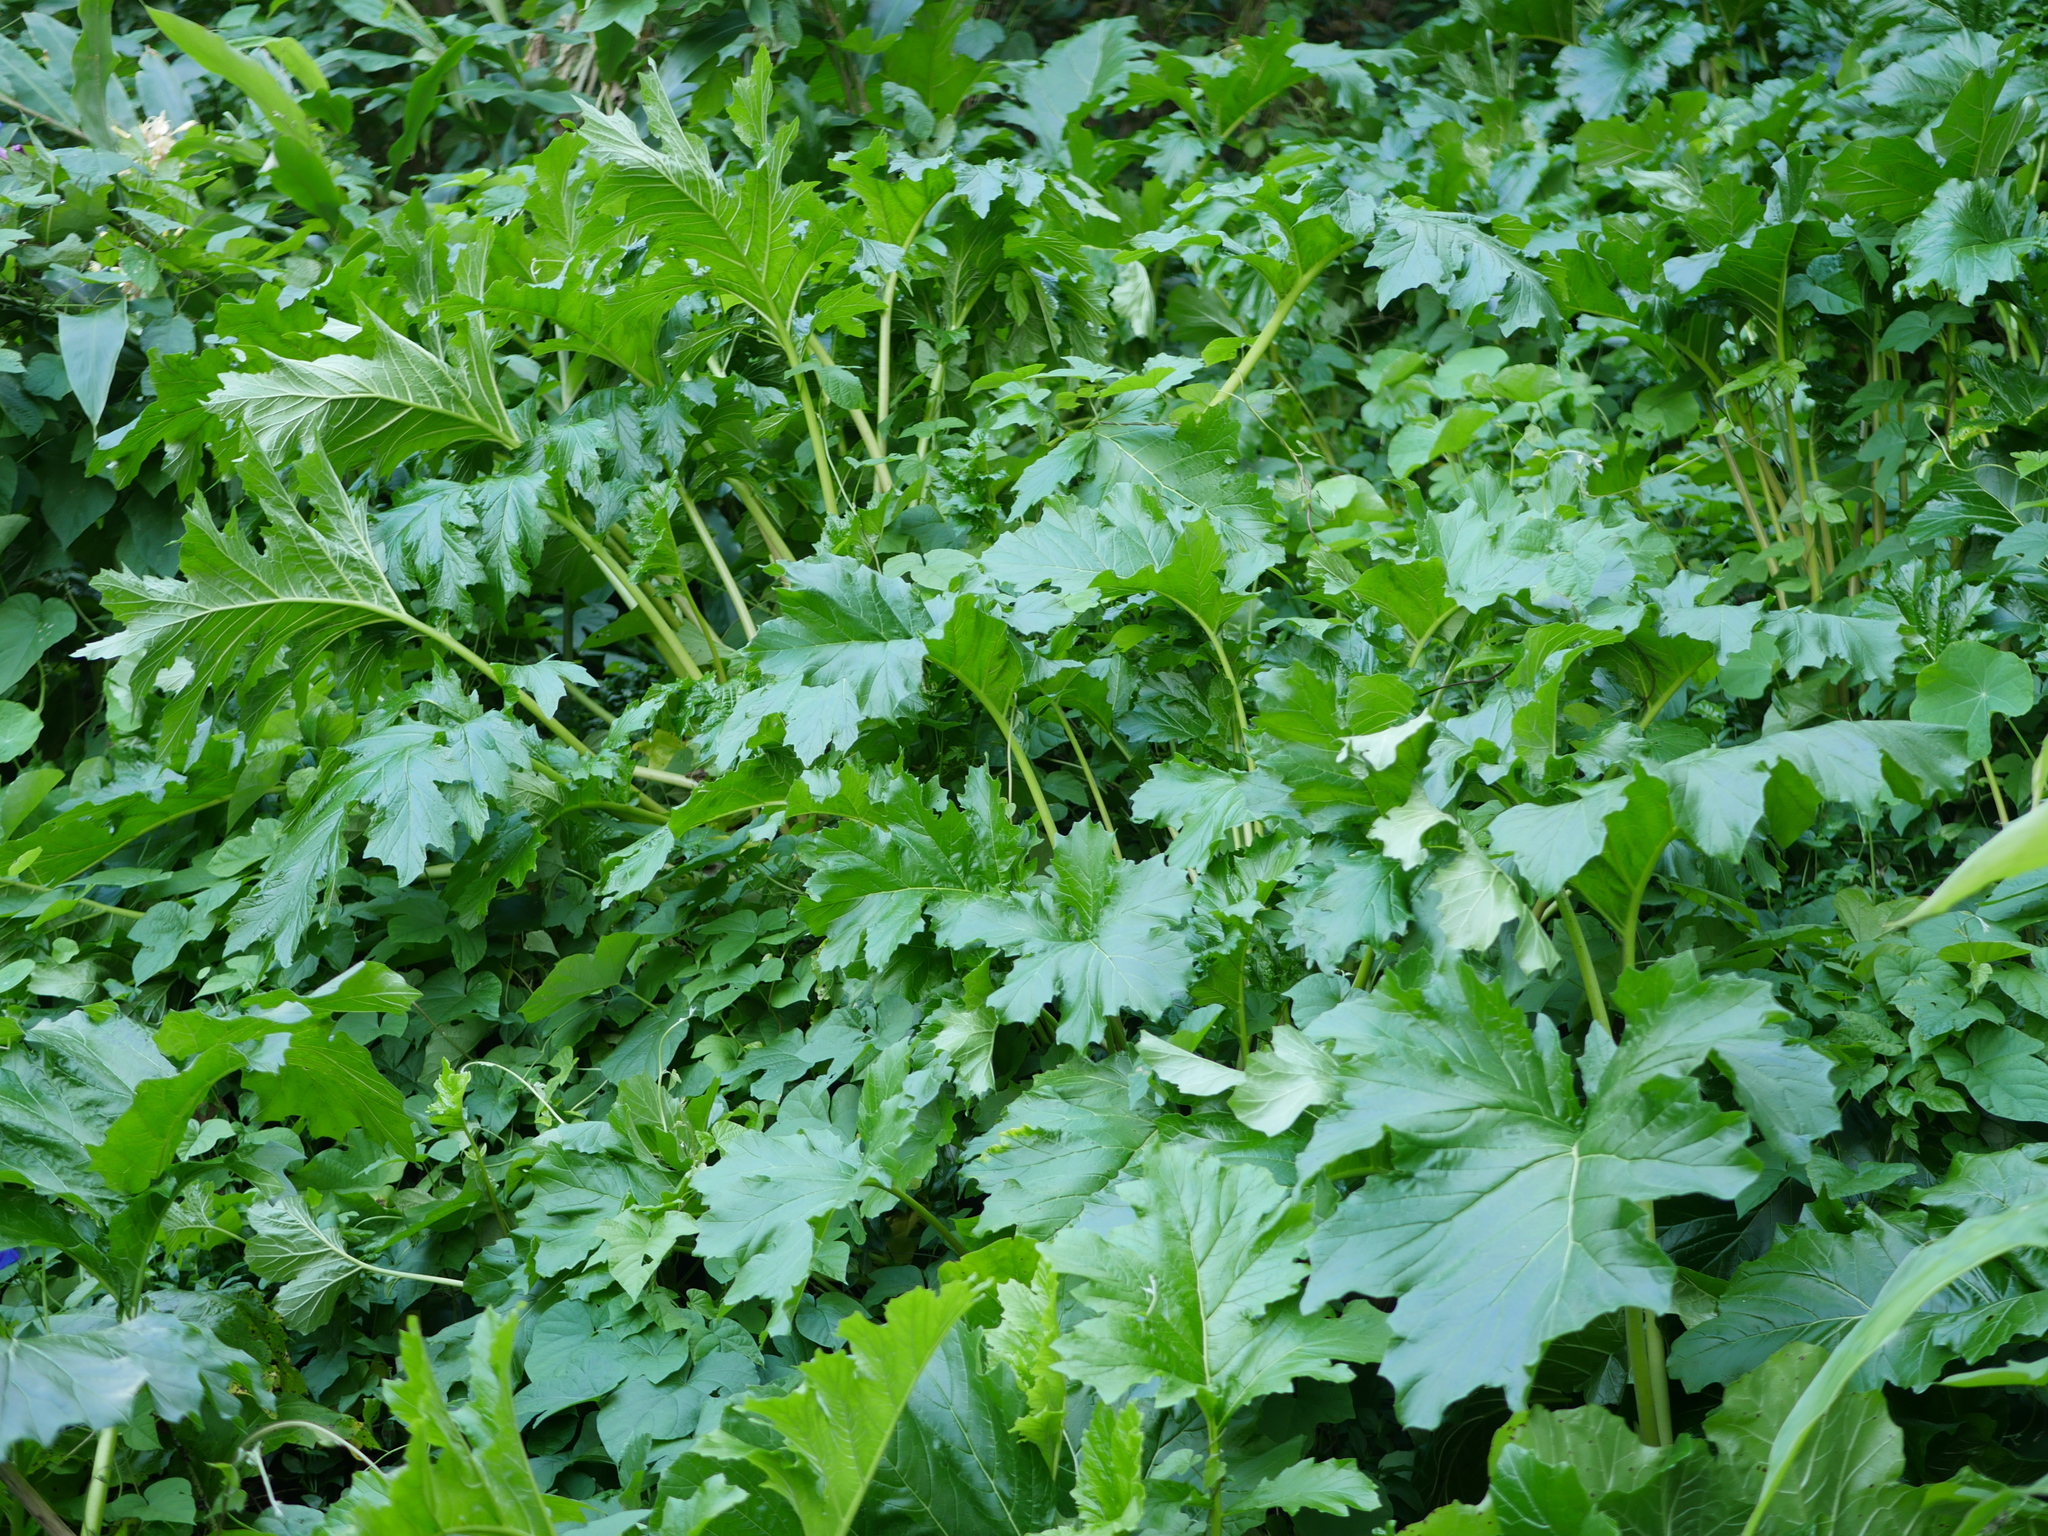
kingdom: Plantae
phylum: Tracheophyta
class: Magnoliopsida
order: Lamiales
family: Acanthaceae
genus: Acanthus
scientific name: Acanthus mollis
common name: Bear's-breech
